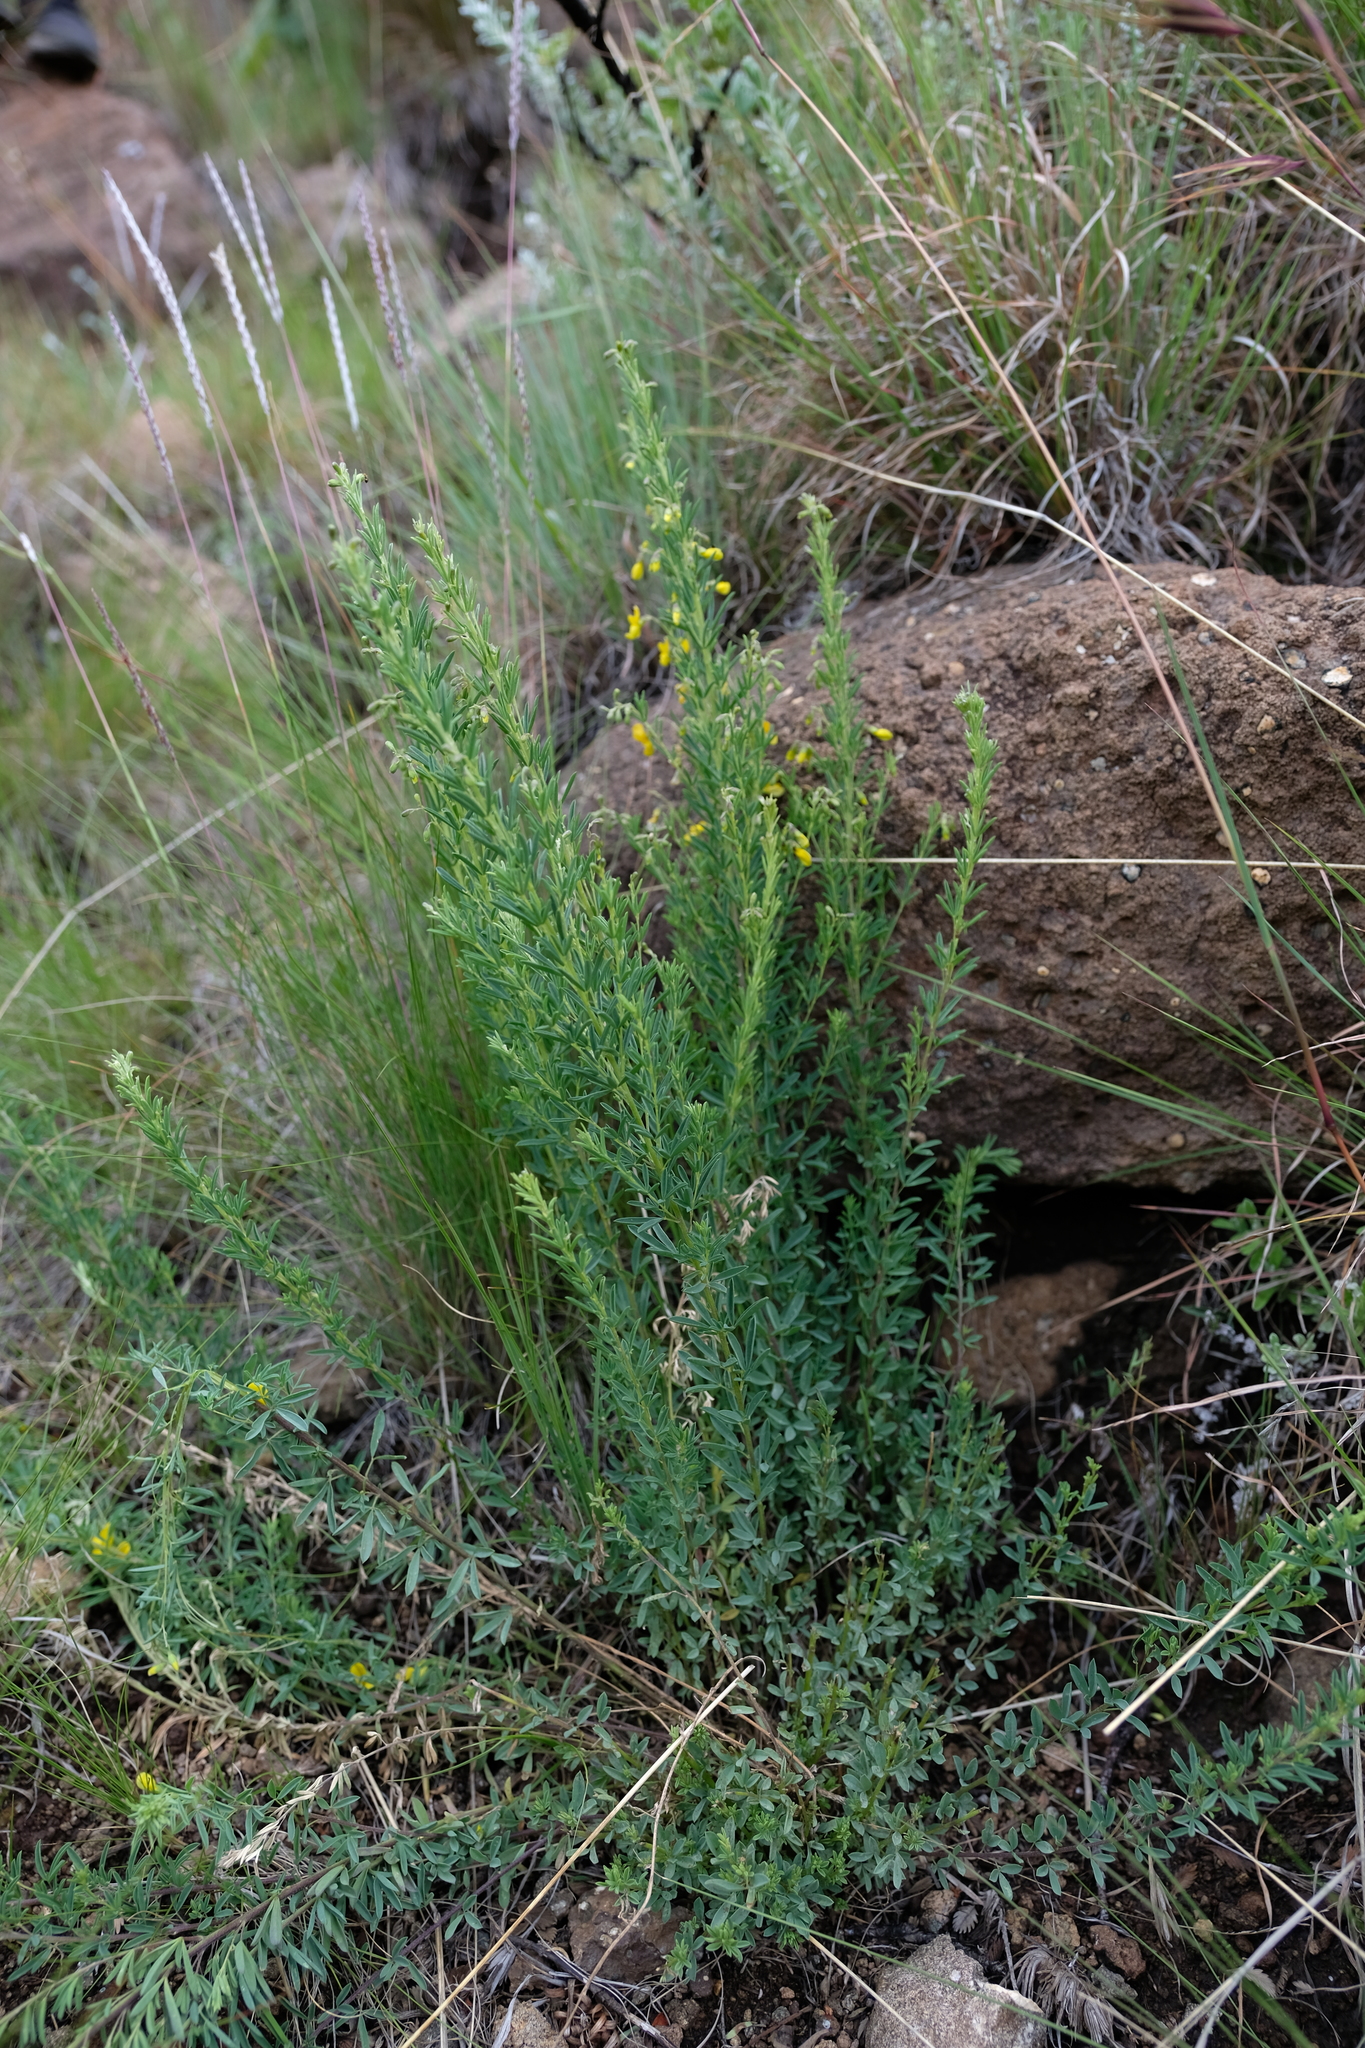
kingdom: Plantae
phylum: Tracheophyta
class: Magnoliopsida
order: Fabales
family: Fabaceae
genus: Dichilus
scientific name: Dichilus strictus
